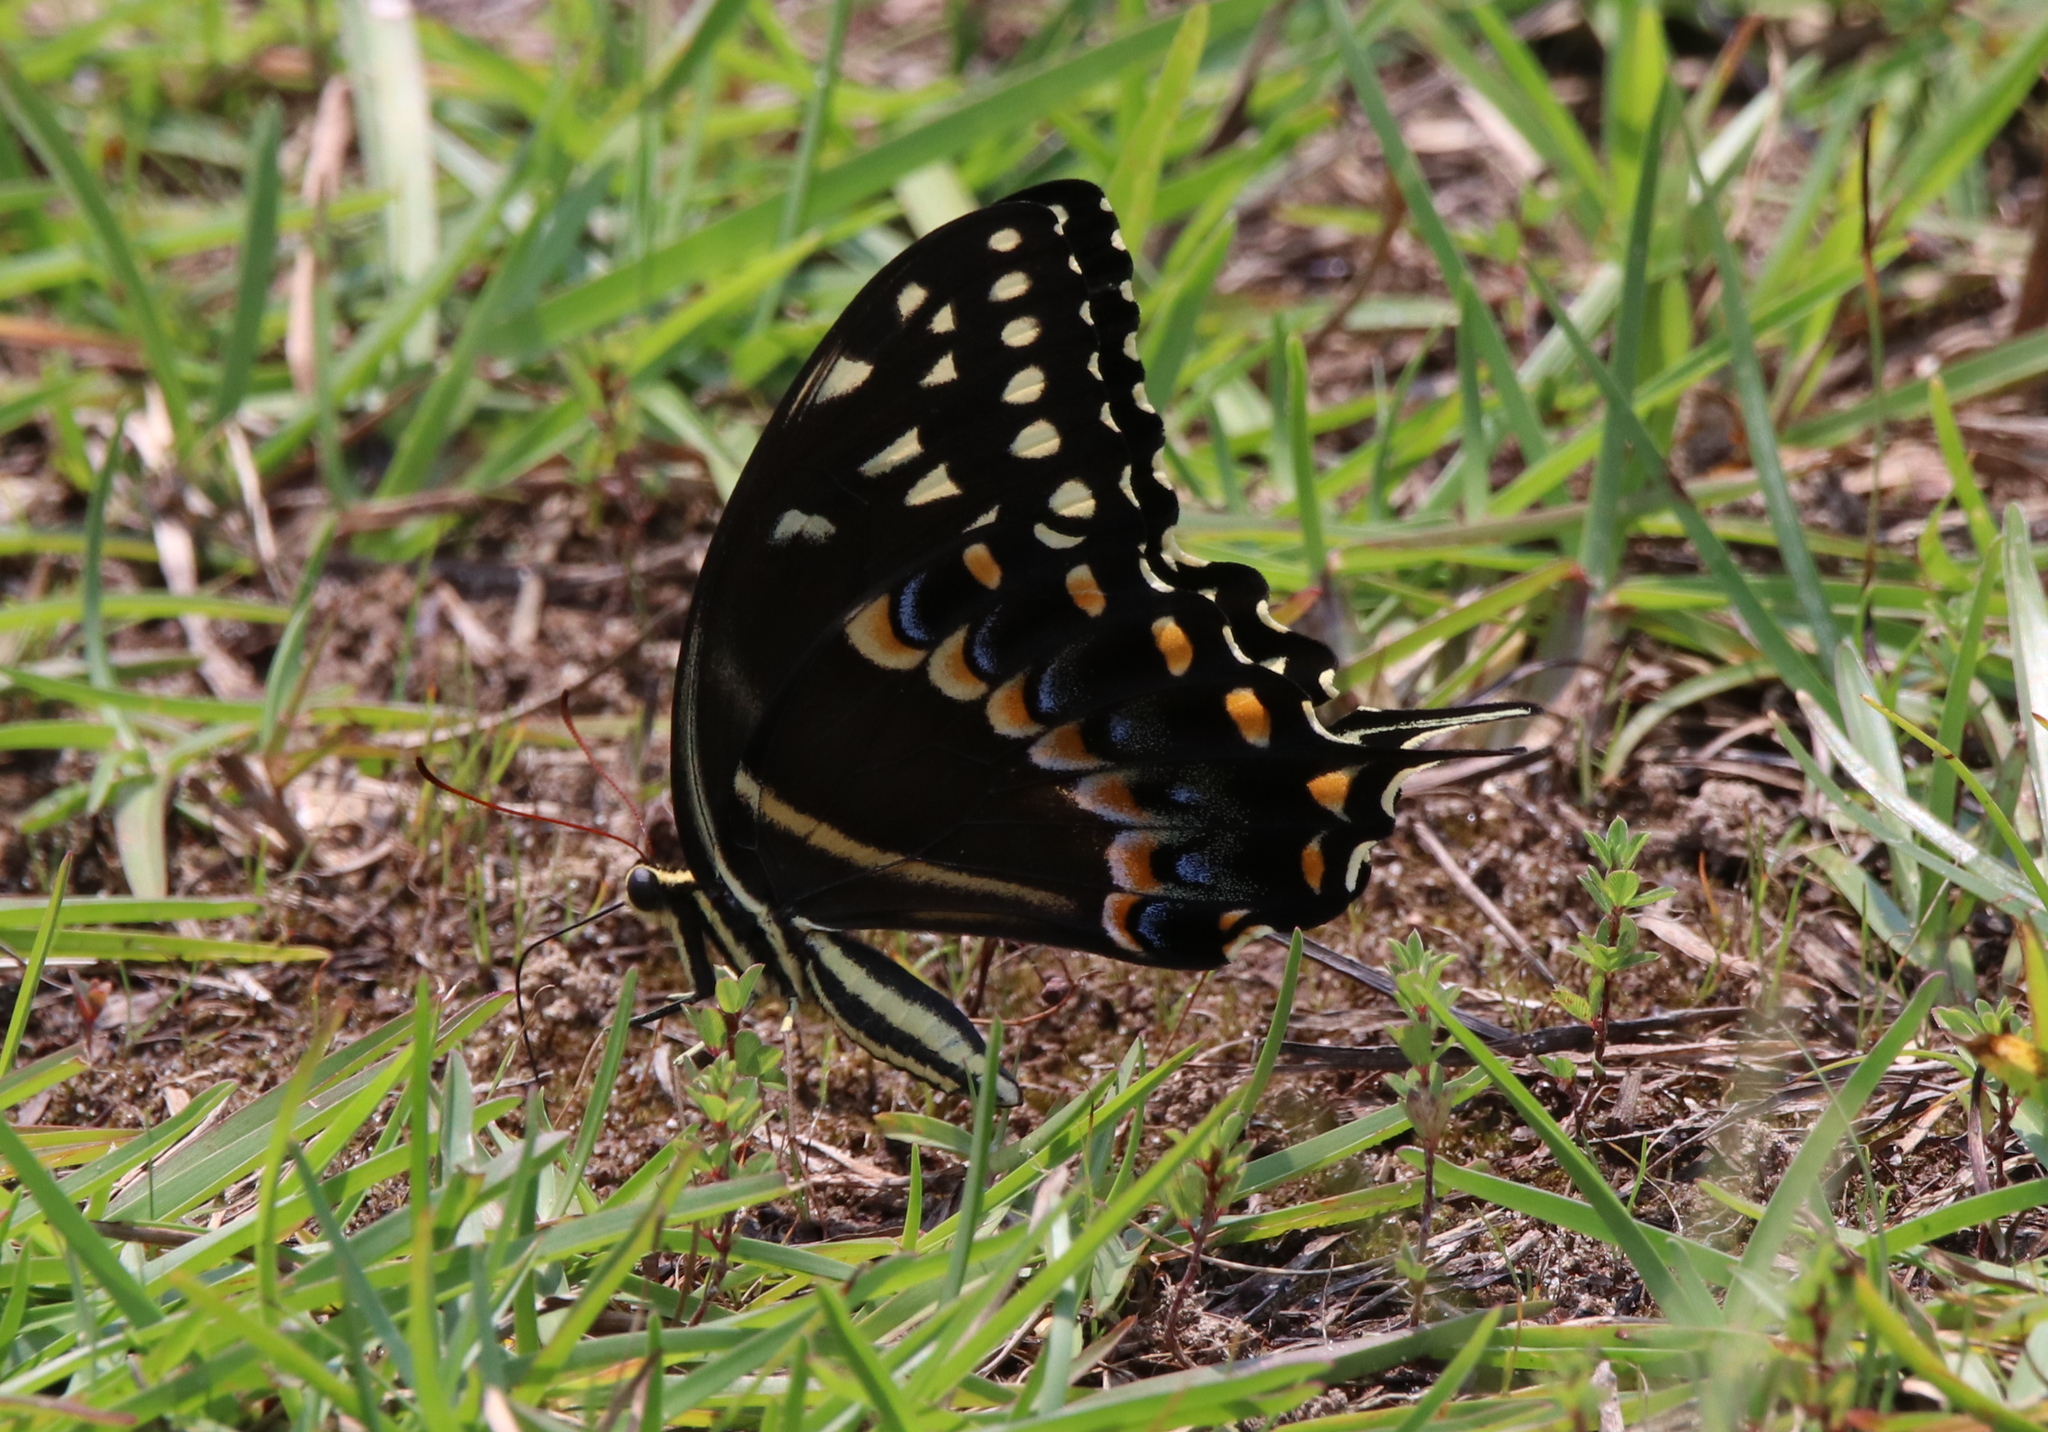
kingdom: Animalia
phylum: Arthropoda
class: Insecta
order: Lepidoptera
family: Papilionidae
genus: Papilio
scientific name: Papilio palamedes
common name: Palamedes swallowtail
